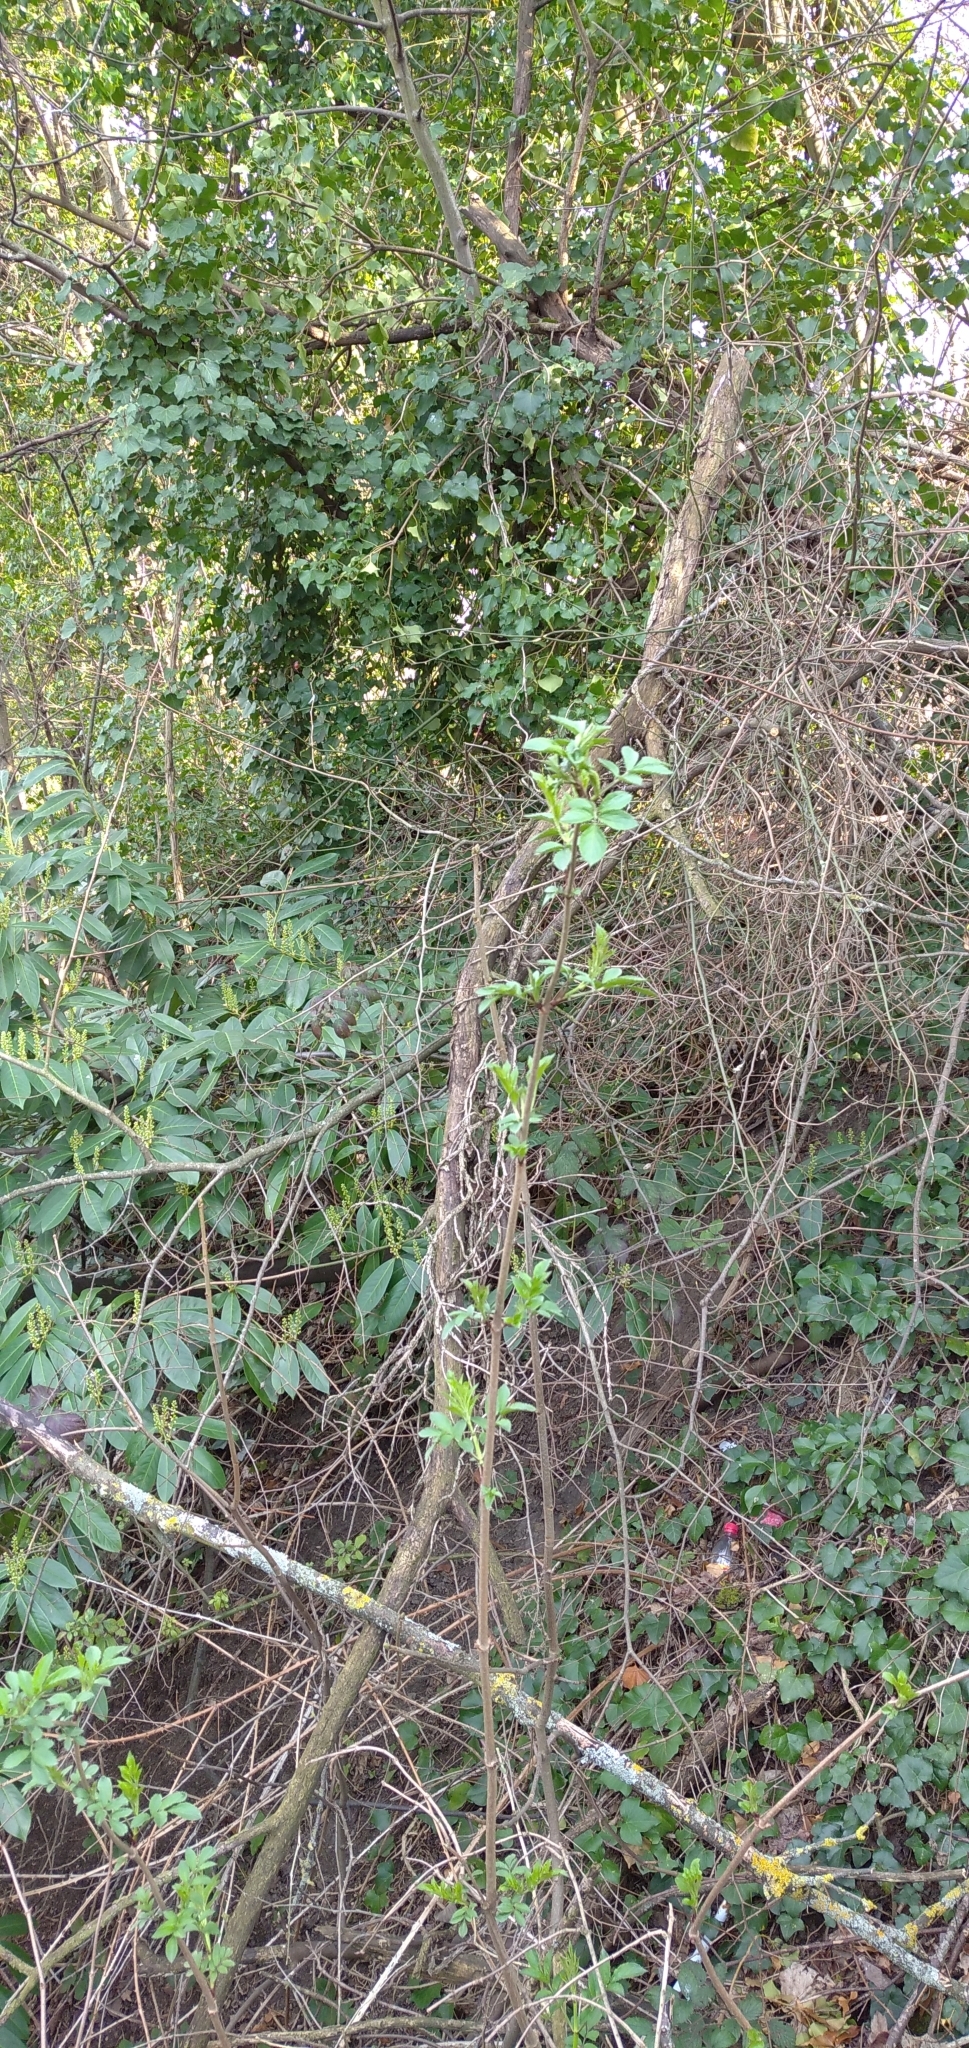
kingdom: Plantae
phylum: Tracheophyta
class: Magnoliopsida
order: Dipsacales
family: Viburnaceae
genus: Sambucus
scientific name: Sambucus nigra
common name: Elder
